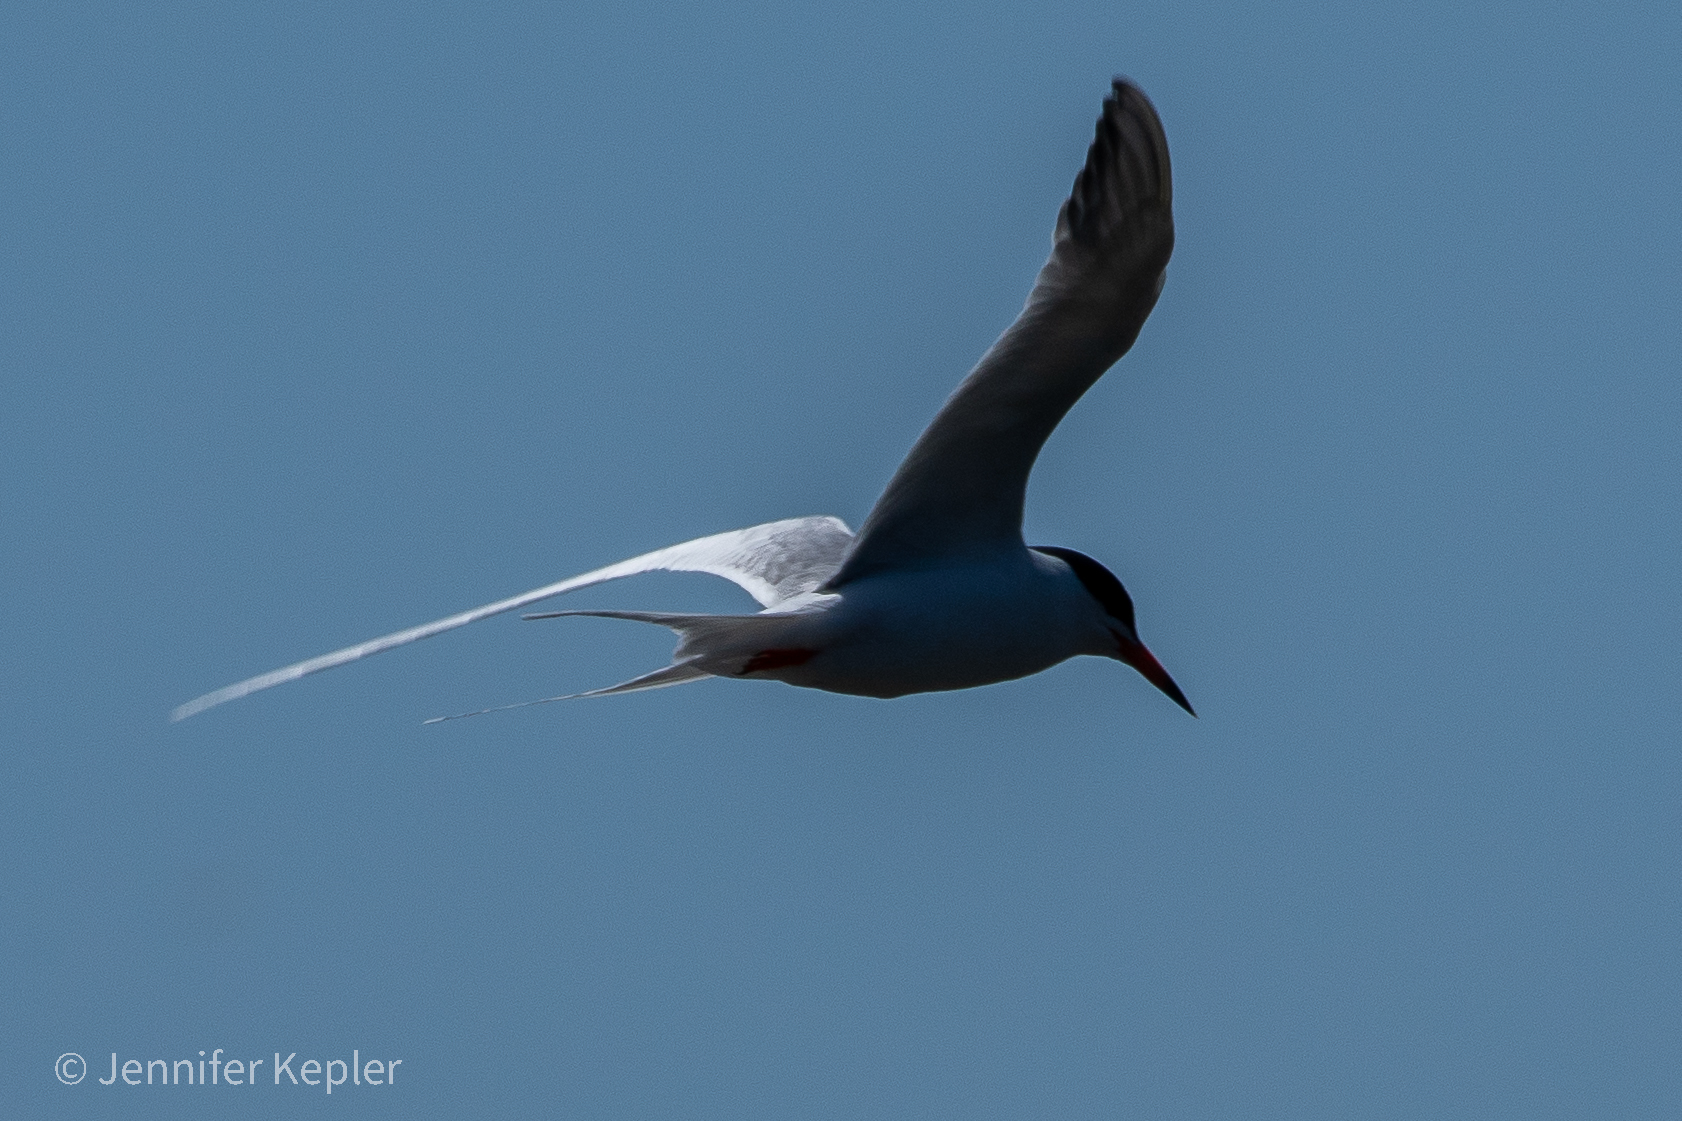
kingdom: Animalia
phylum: Chordata
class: Aves
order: Charadriiformes
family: Laridae
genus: Sterna
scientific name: Sterna forsteri
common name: Forster's tern
